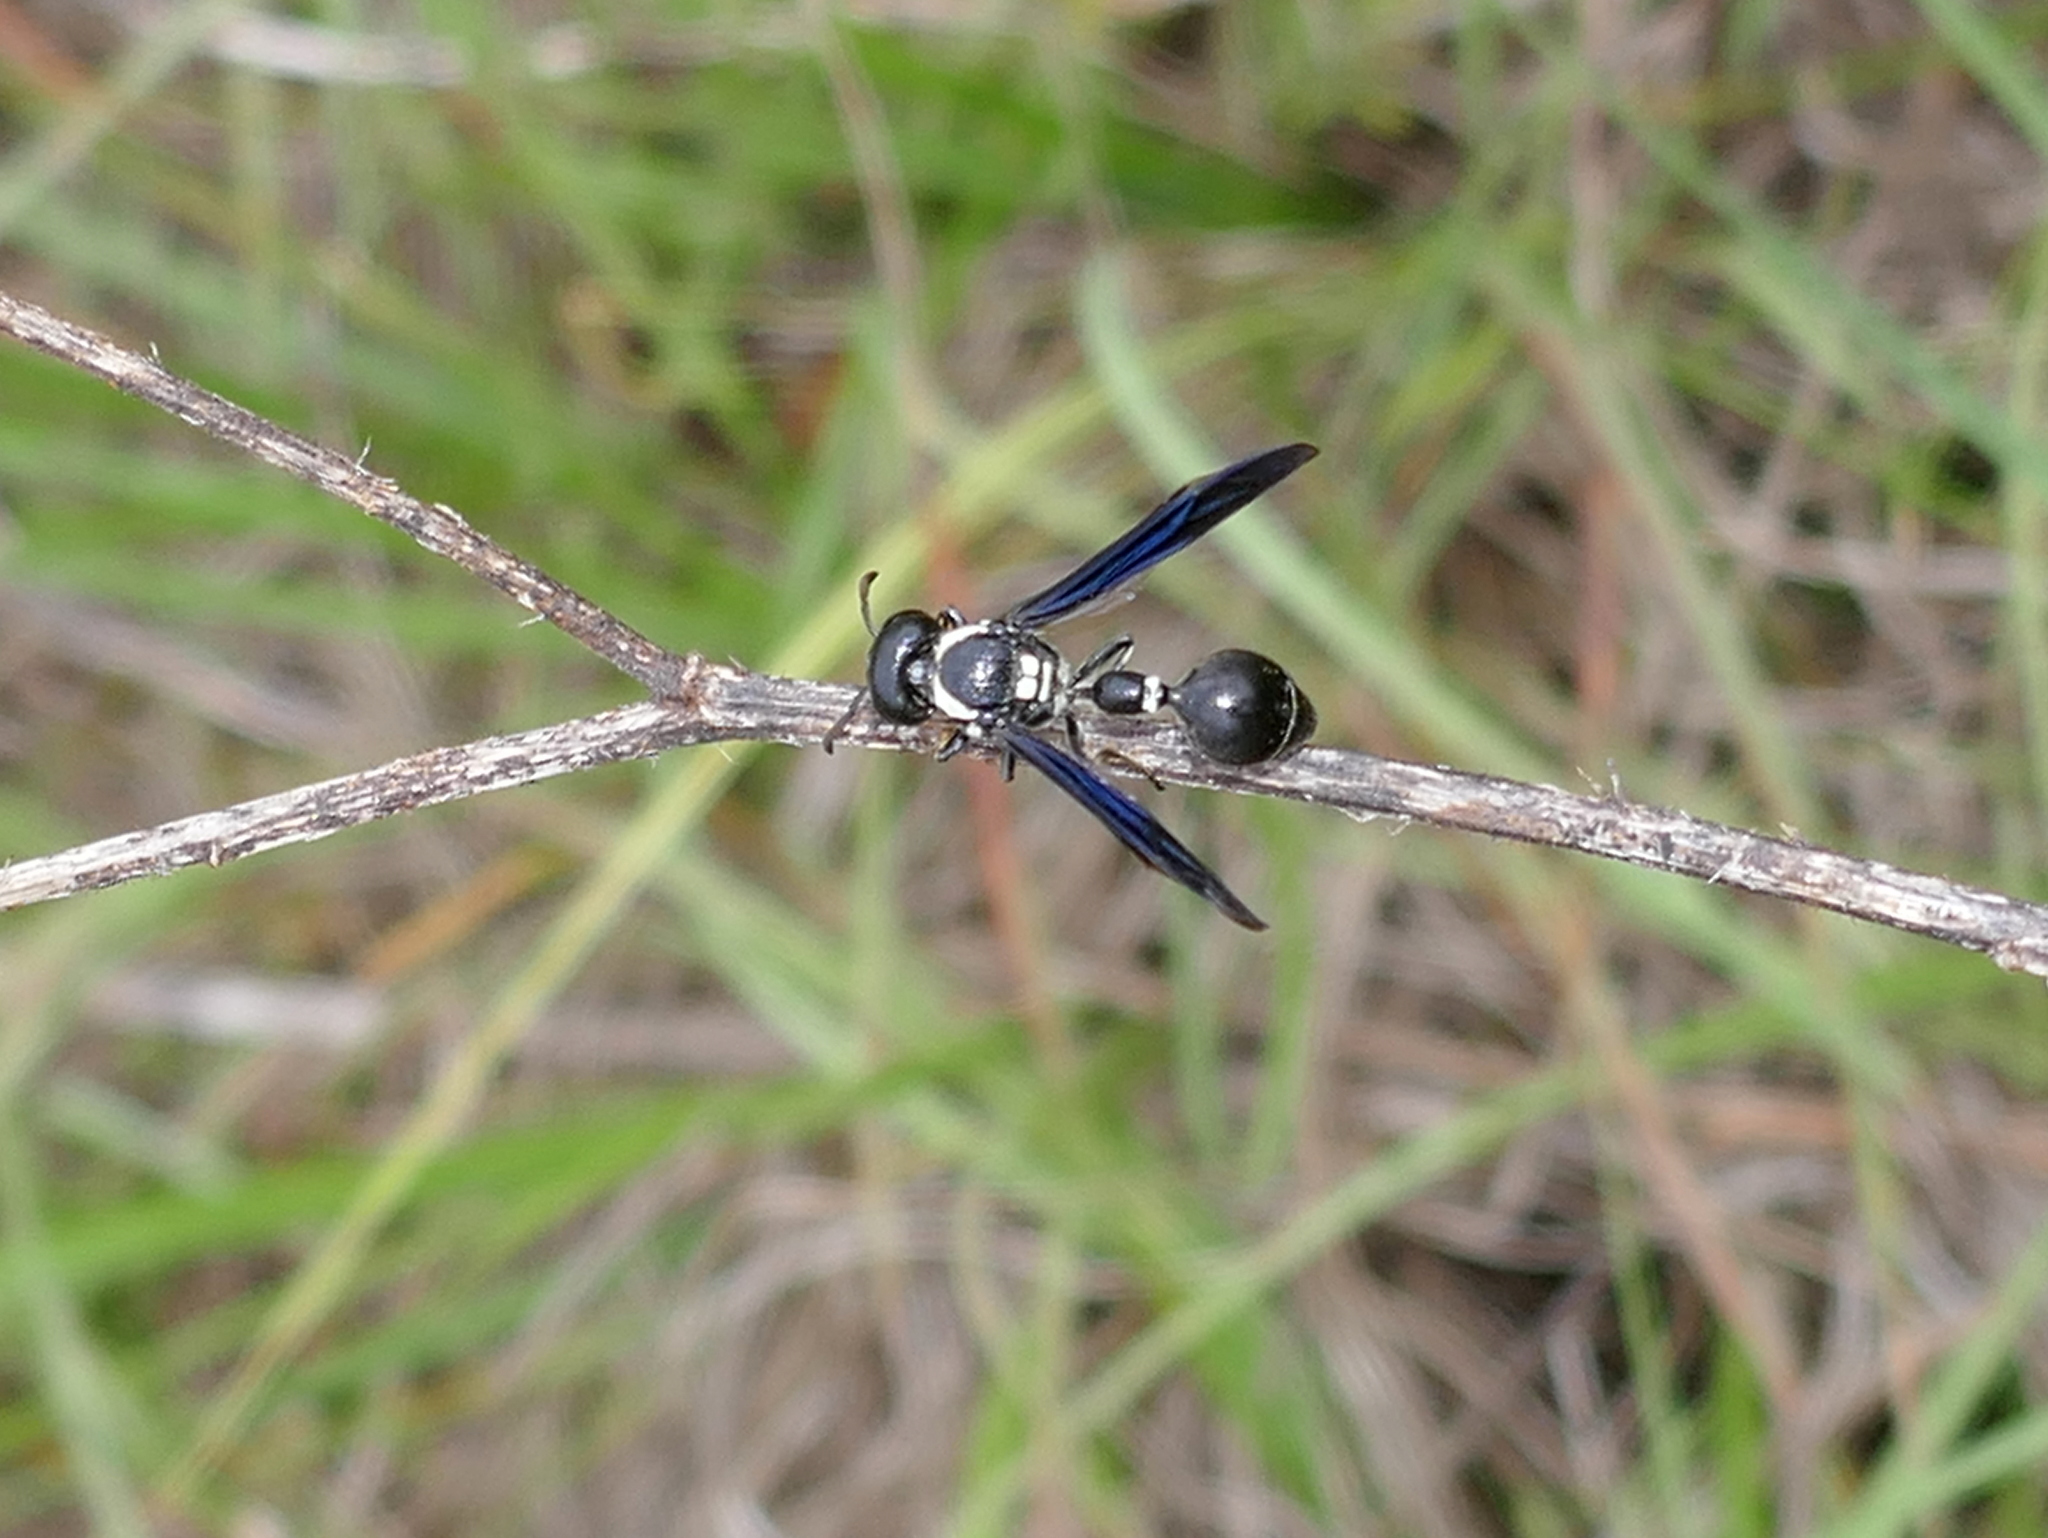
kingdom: Animalia
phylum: Arthropoda
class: Insecta
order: Hymenoptera
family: Eumenidae
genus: Zethus
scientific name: Zethus spinipes
